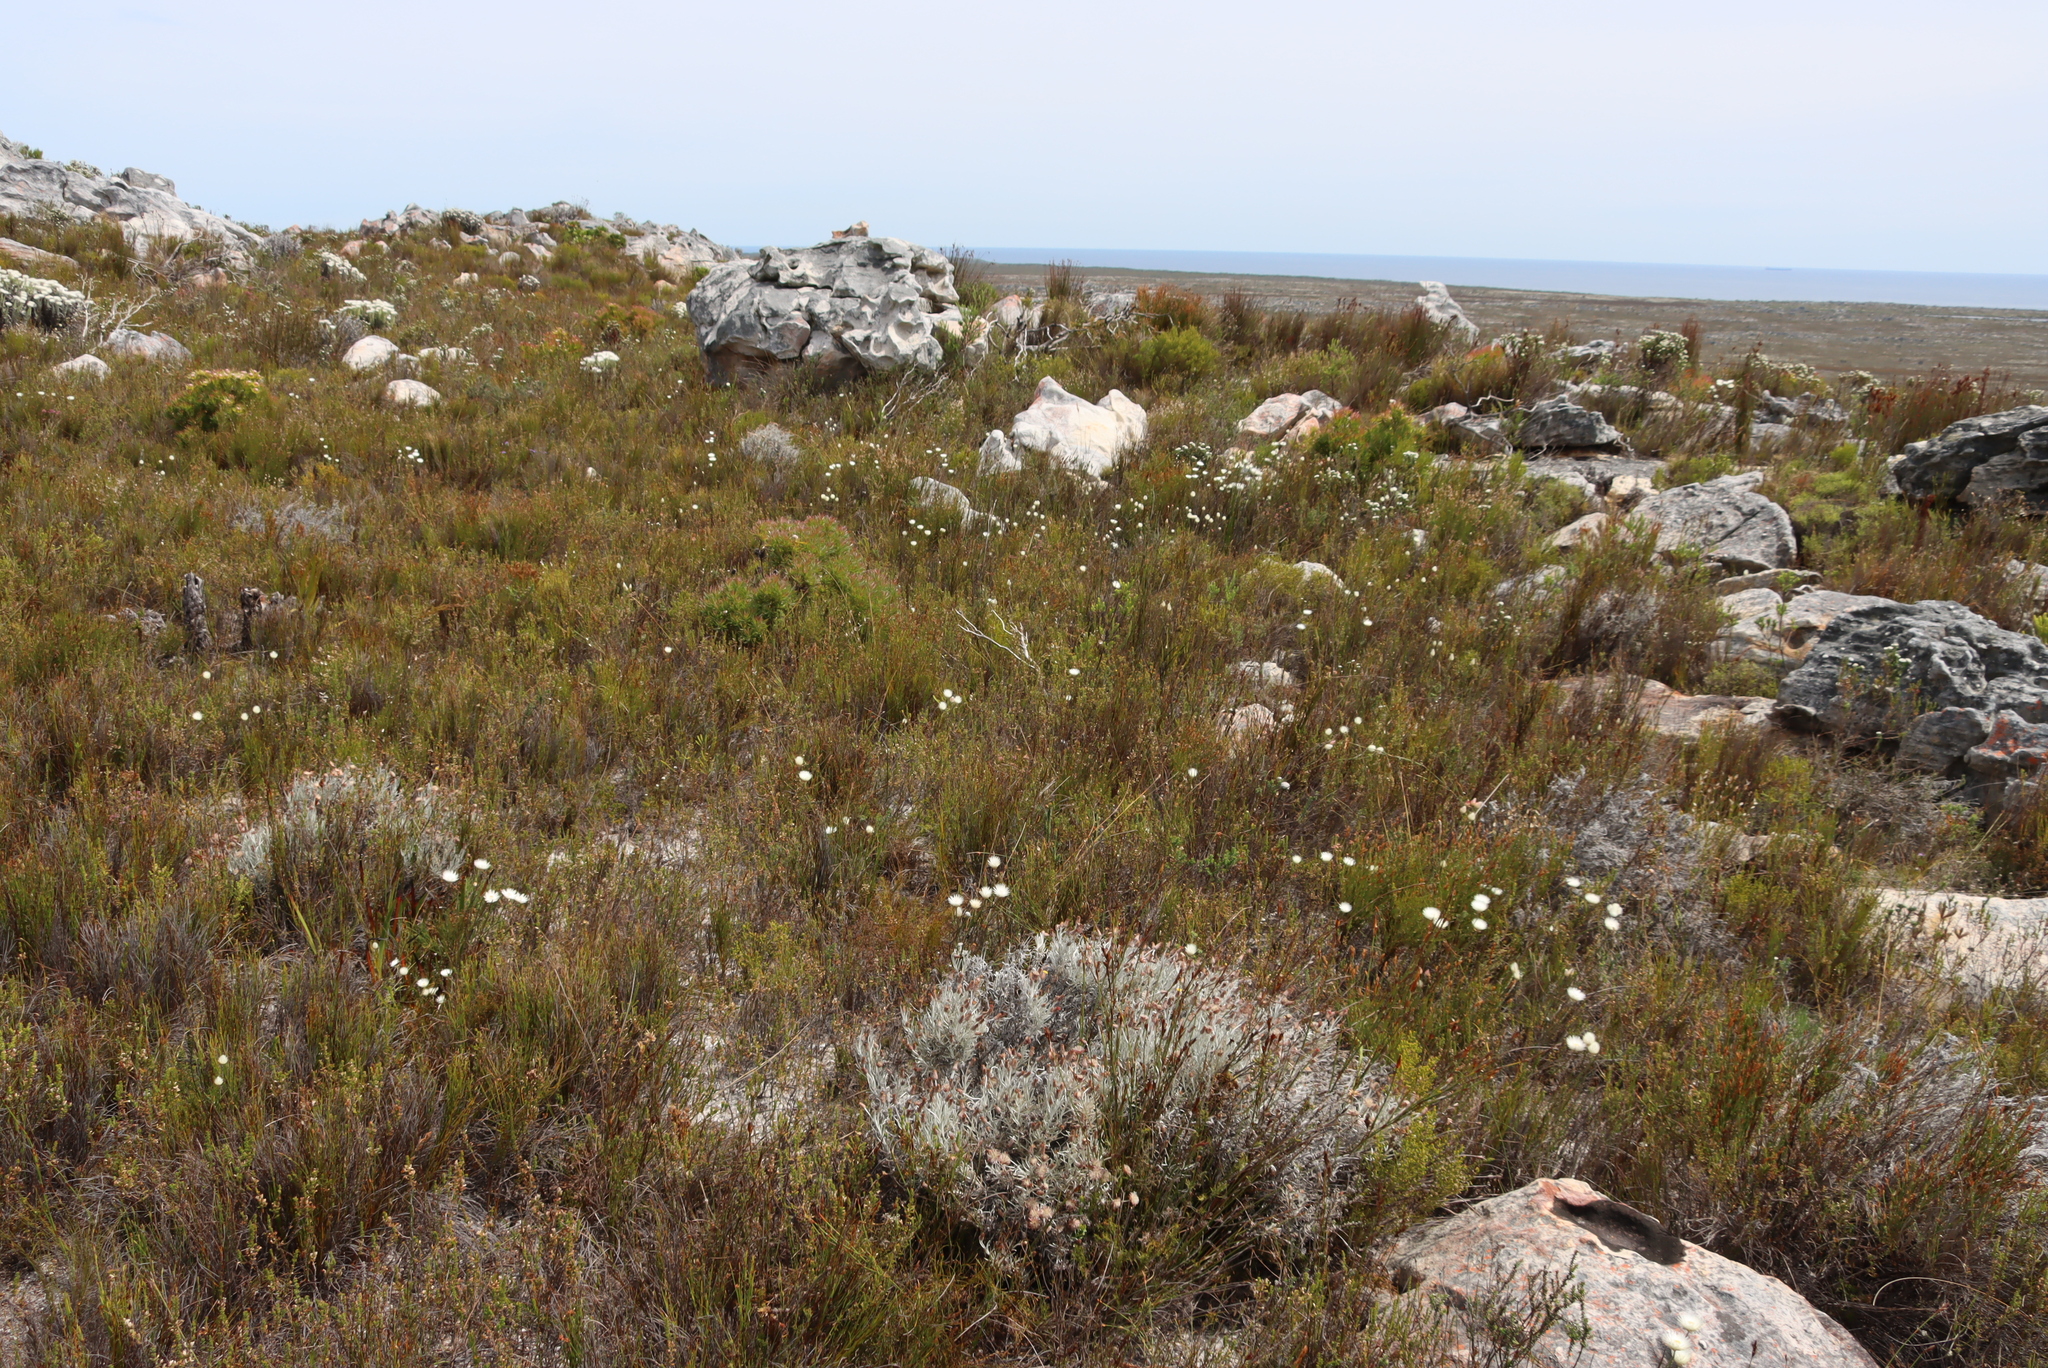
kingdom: Plantae
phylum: Tracheophyta
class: Magnoliopsida
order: Asterales
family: Asteraceae
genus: Edmondia
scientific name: Edmondia sesamoides
